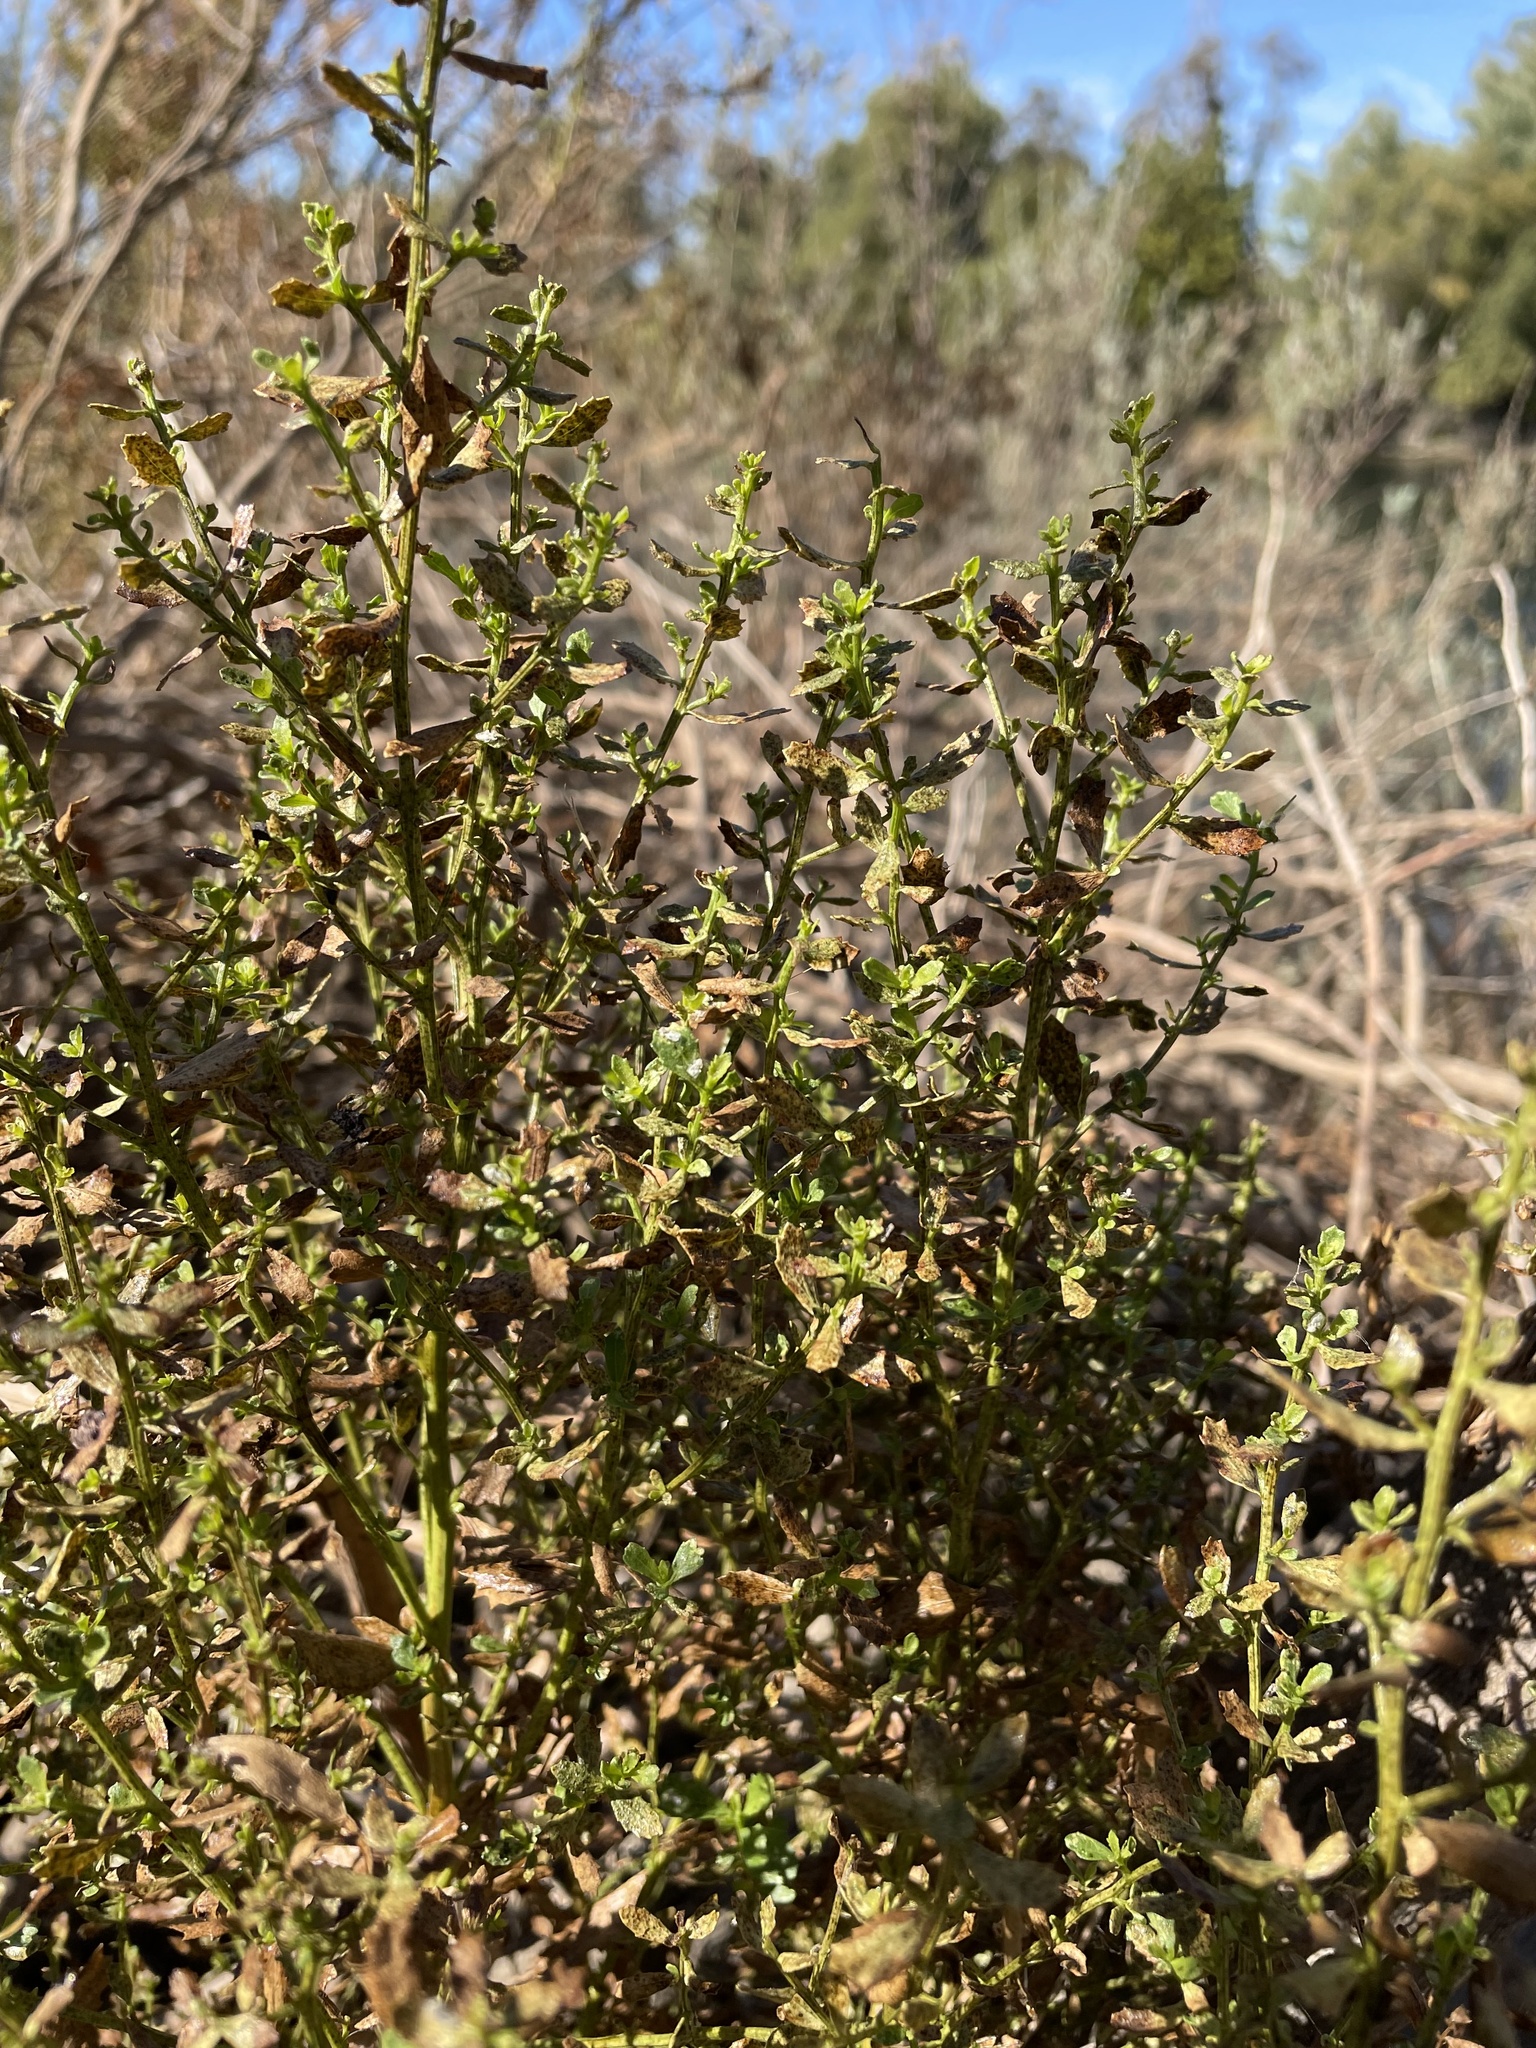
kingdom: Plantae
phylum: Tracheophyta
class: Magnoliopsida
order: Asterales
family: Asteraceae
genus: Baccharis
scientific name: Baccharis pilularis
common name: Coyotebrush
